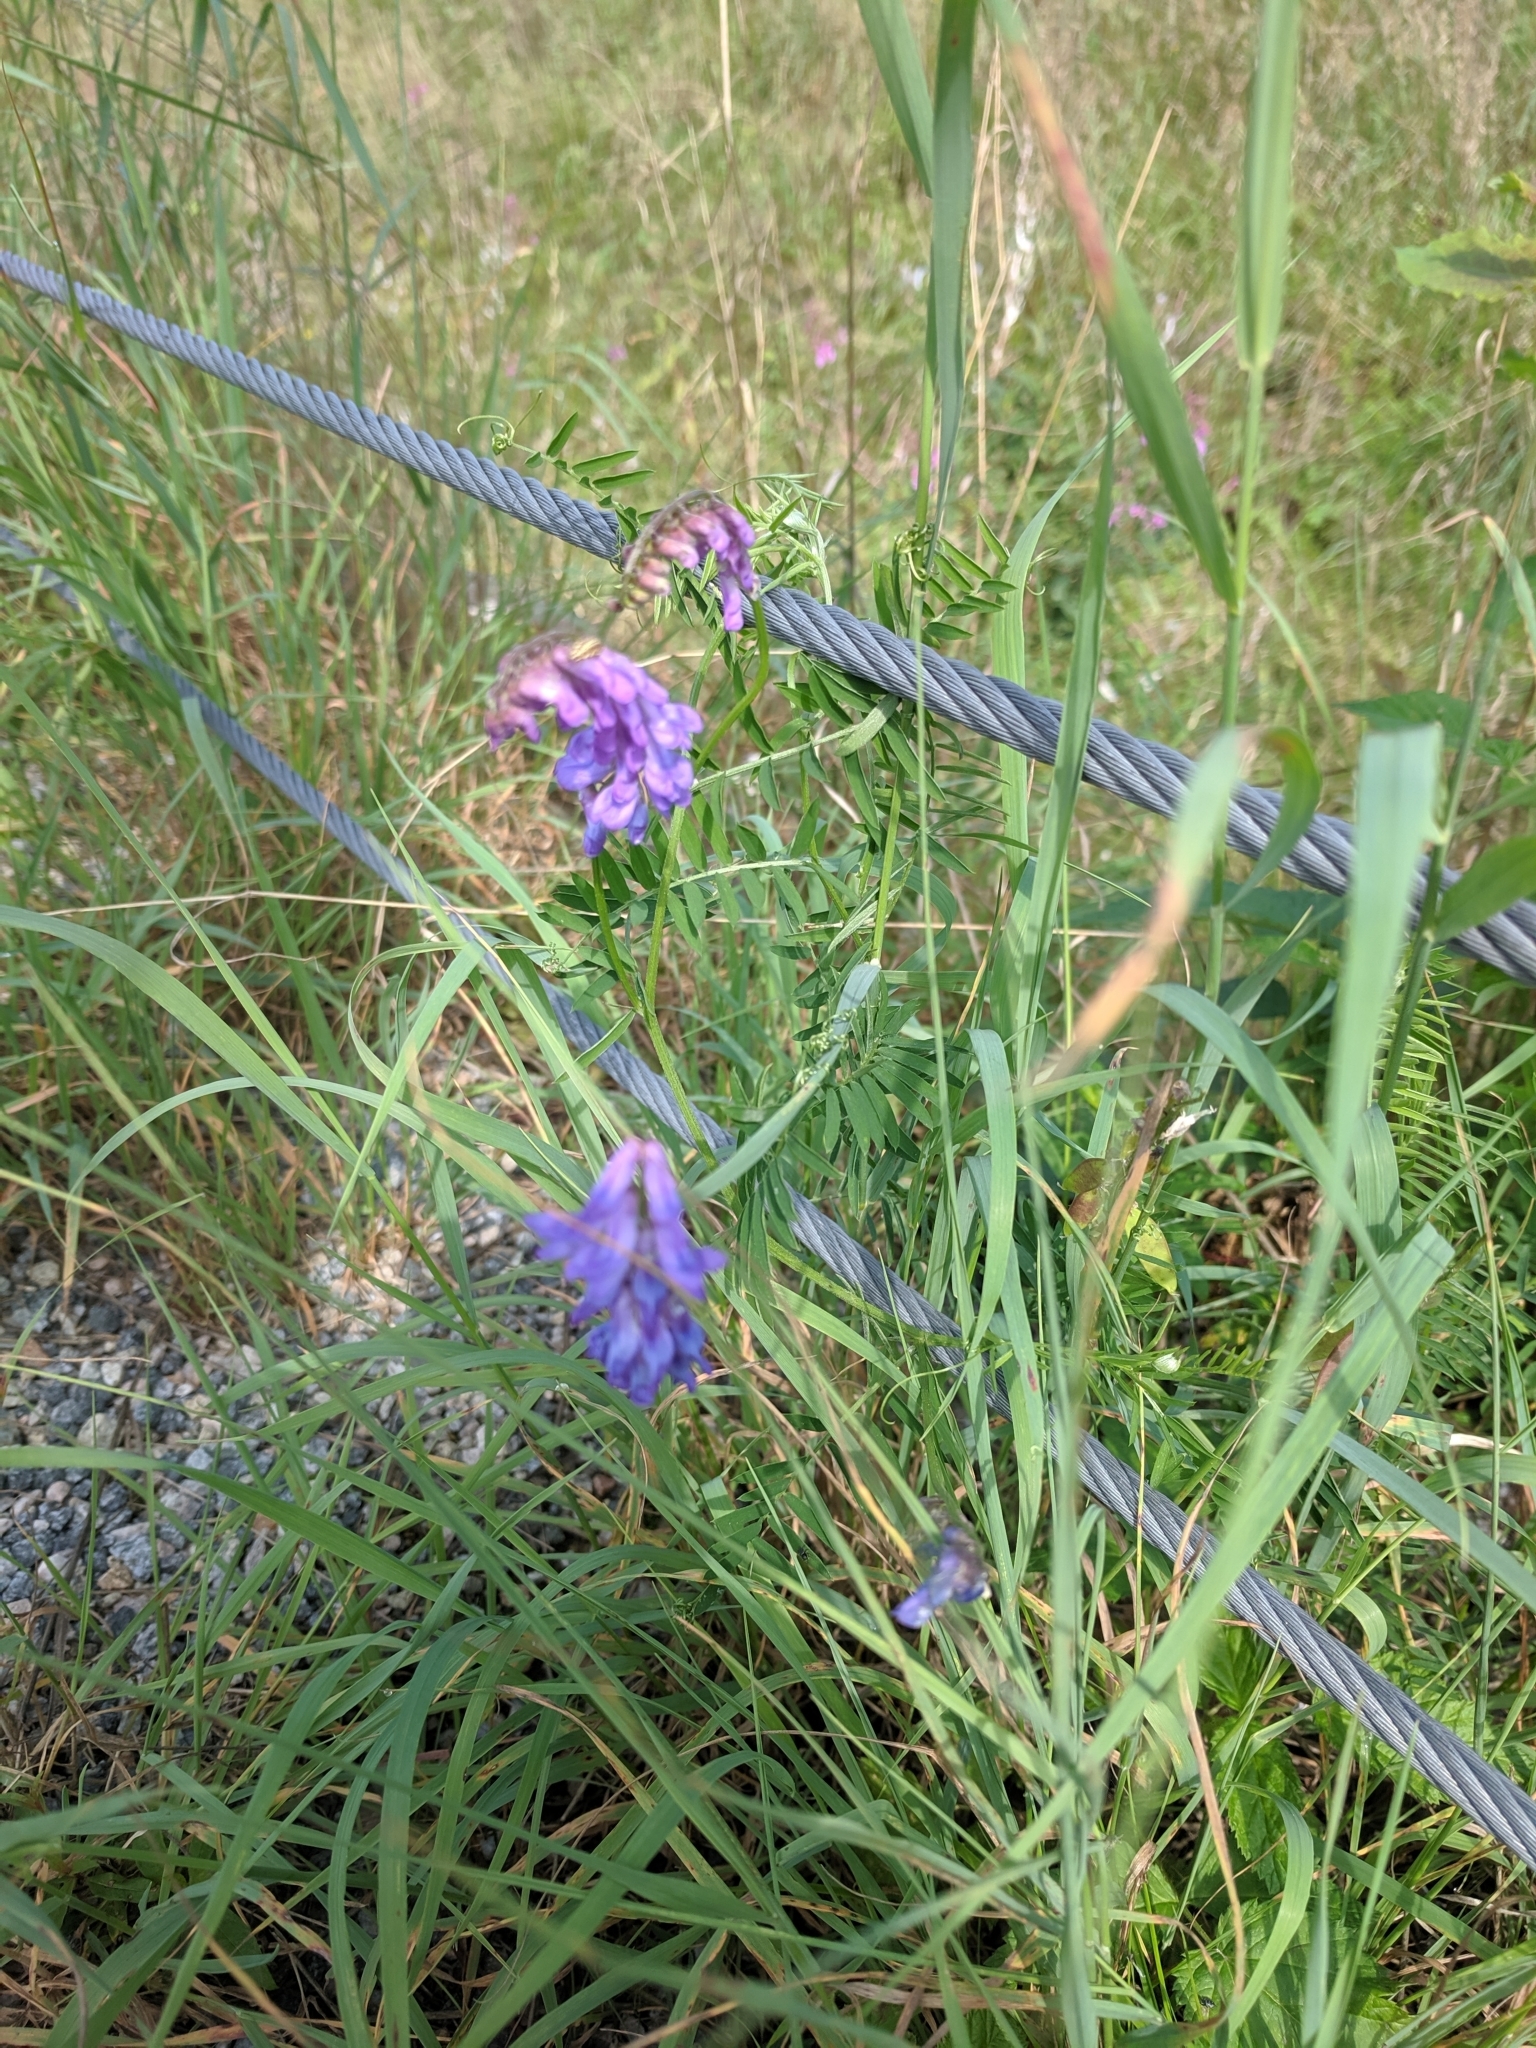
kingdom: Plantae
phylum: Tracheophyta
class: Magnoliopsida
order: Fabales
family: Fabaceae
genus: Vicia
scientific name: Vicia cracca
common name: Bird vetch
